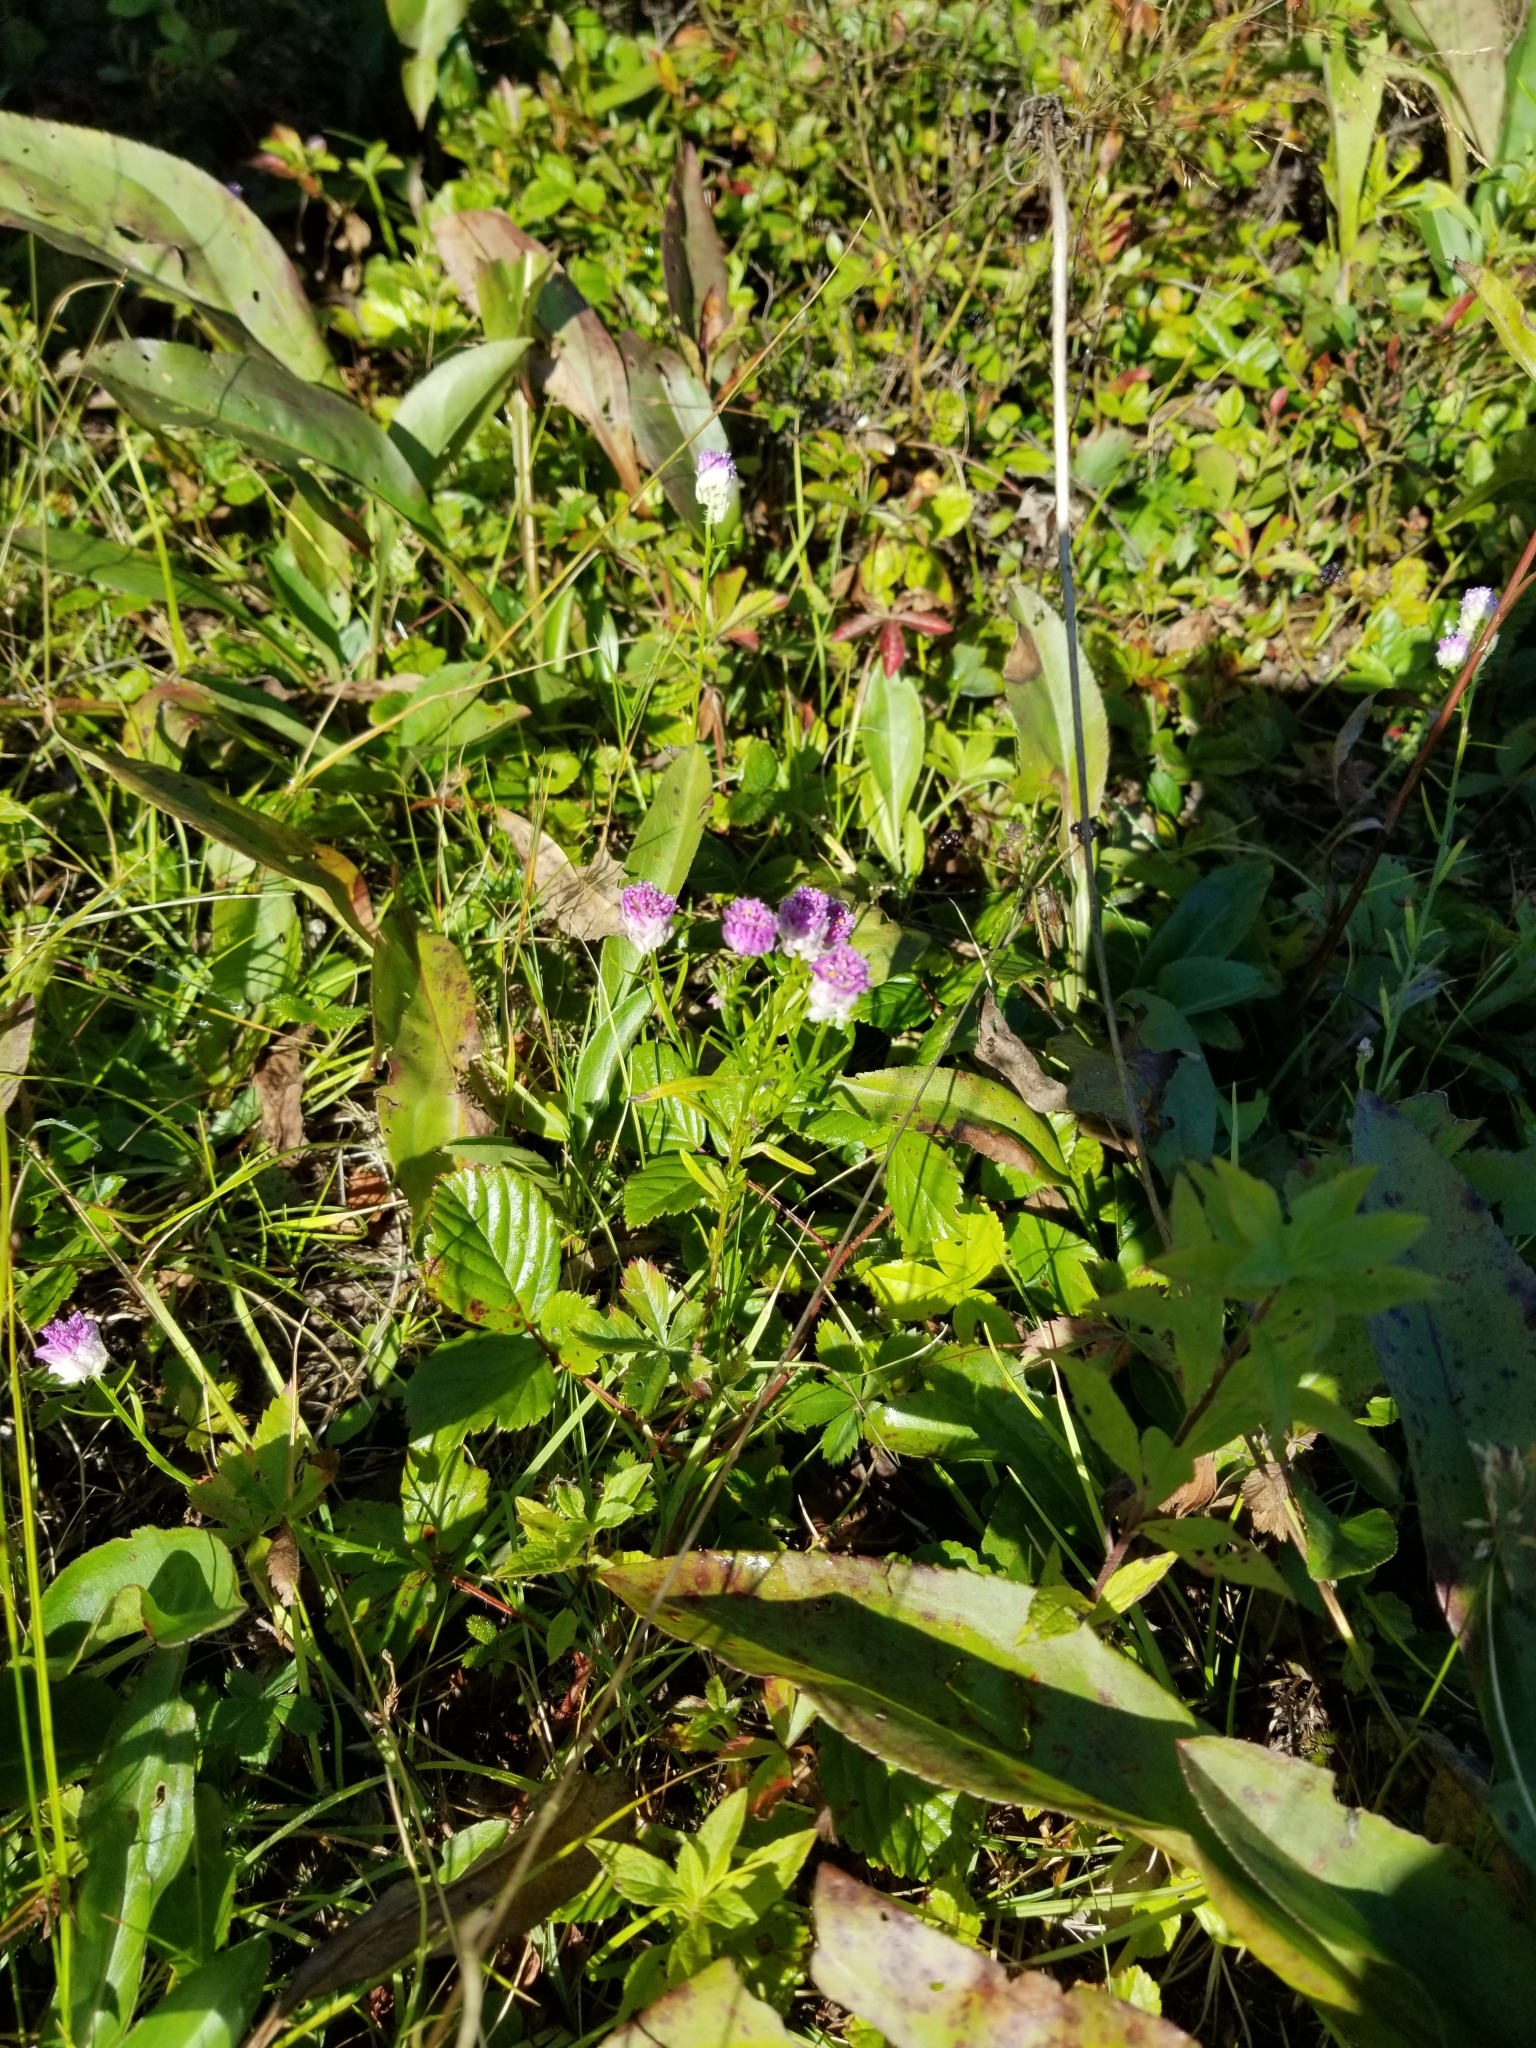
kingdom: Plantae
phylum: Tracheophyta
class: Magnoliopsida
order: Fabales
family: Polygalaceae
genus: Polygala
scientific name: Polygala sanguinea
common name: Blood milkwort
